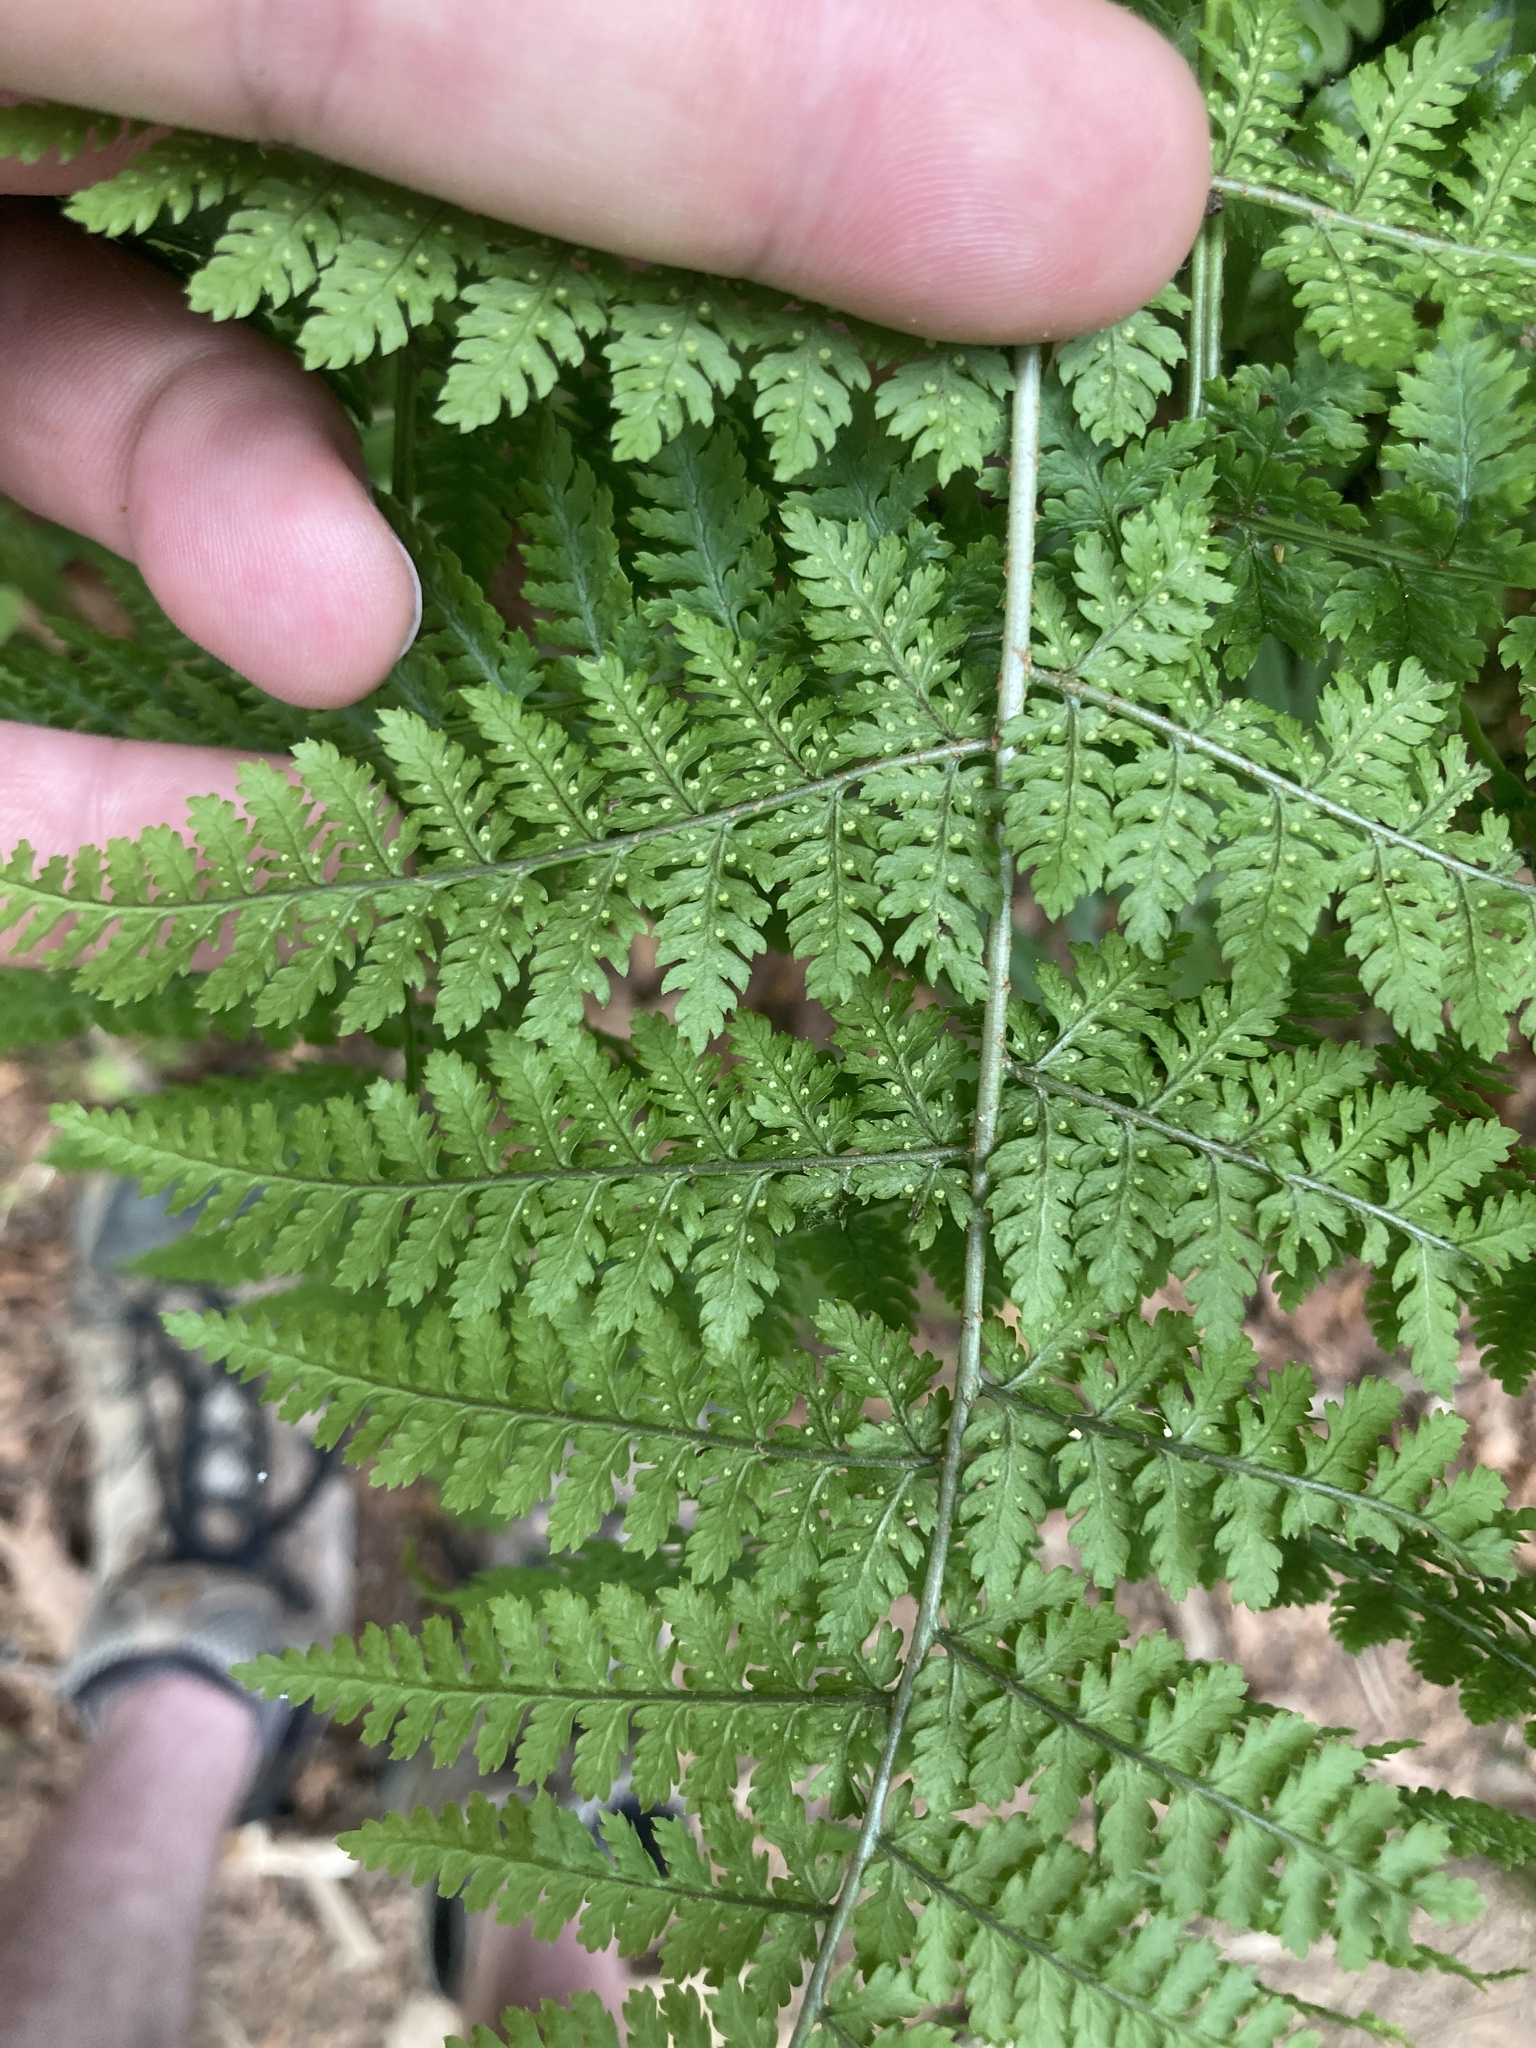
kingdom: Plantae
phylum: Tracheophyta
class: Polypodiopsida
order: Polypodiales
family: Dryopteridaceae
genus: Dryopteris
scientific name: Dryopteris expansa
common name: Northern buckler fern
